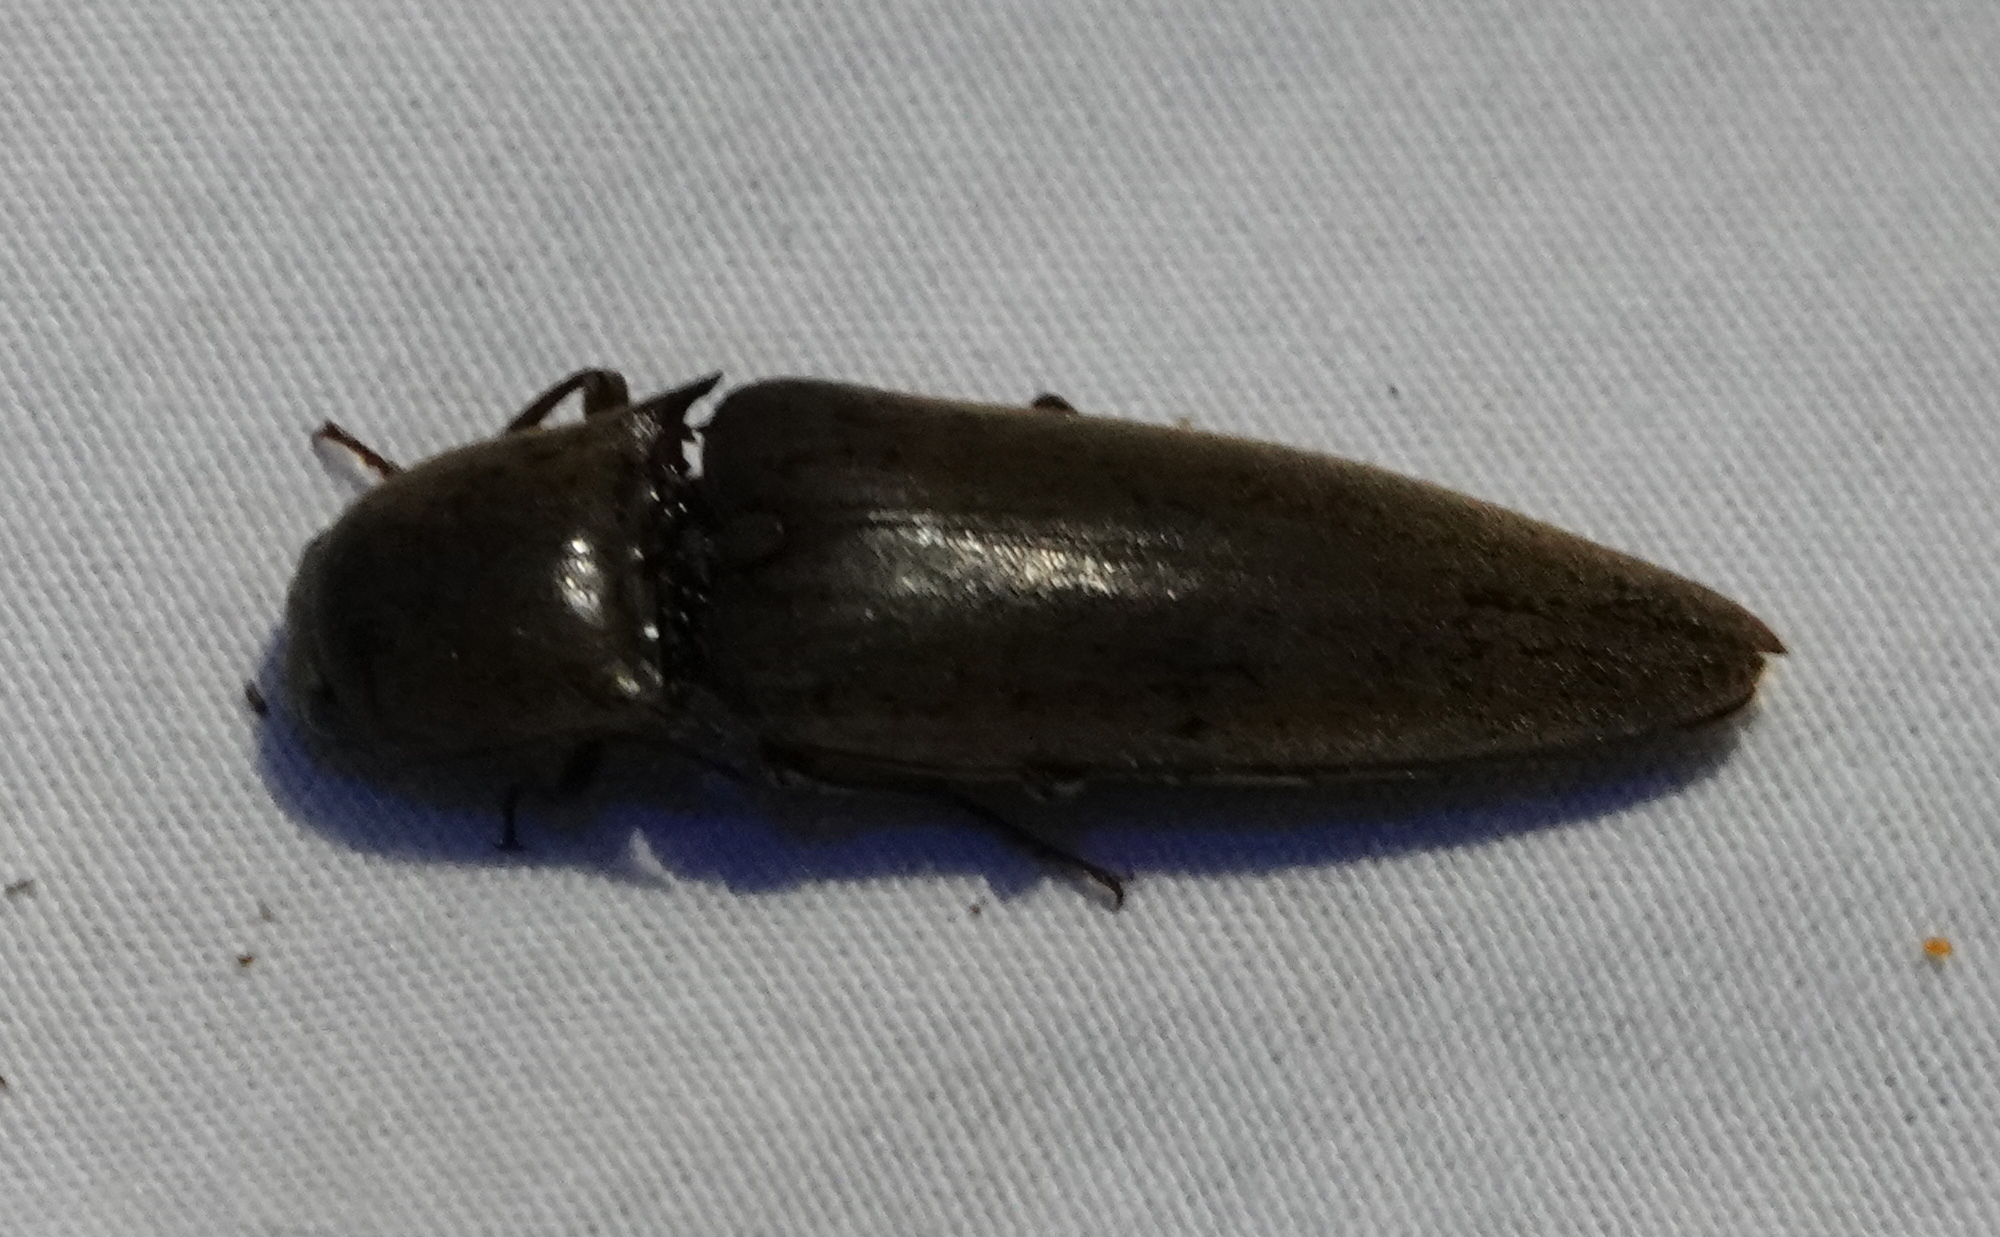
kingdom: Animalia
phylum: Arthropoda
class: Insecta
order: Coleoptera
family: Elateridae
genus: Orthostethus
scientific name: Orthostethus infuscatus
